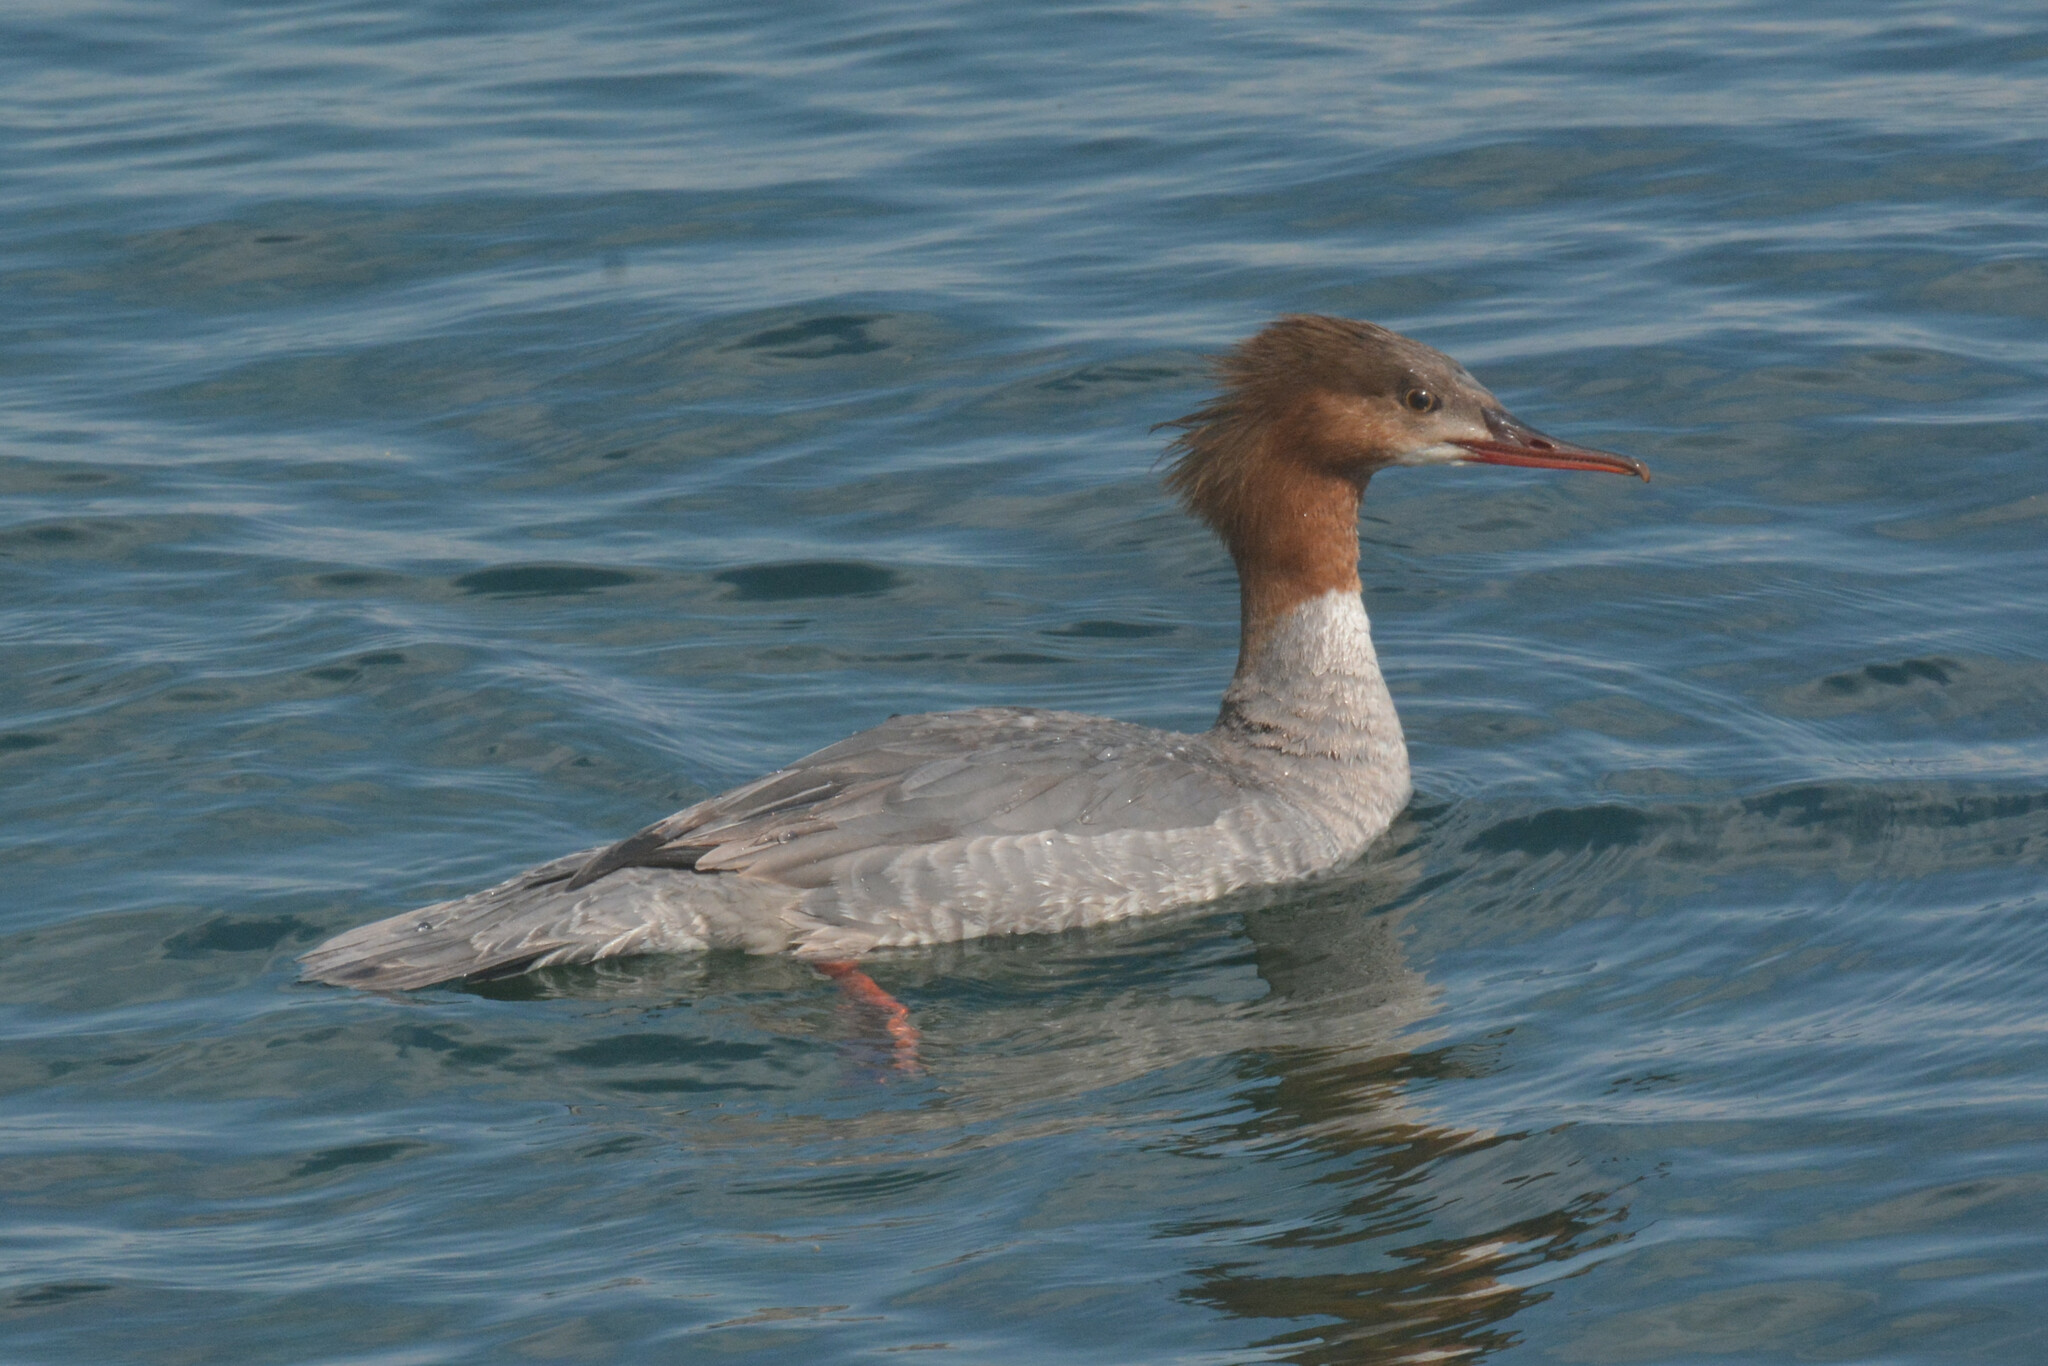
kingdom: Animalia
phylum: Chordata
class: Aves
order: Anseriformes
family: Anatidae
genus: Mergus
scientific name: Mergus merganser
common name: Common merganser
